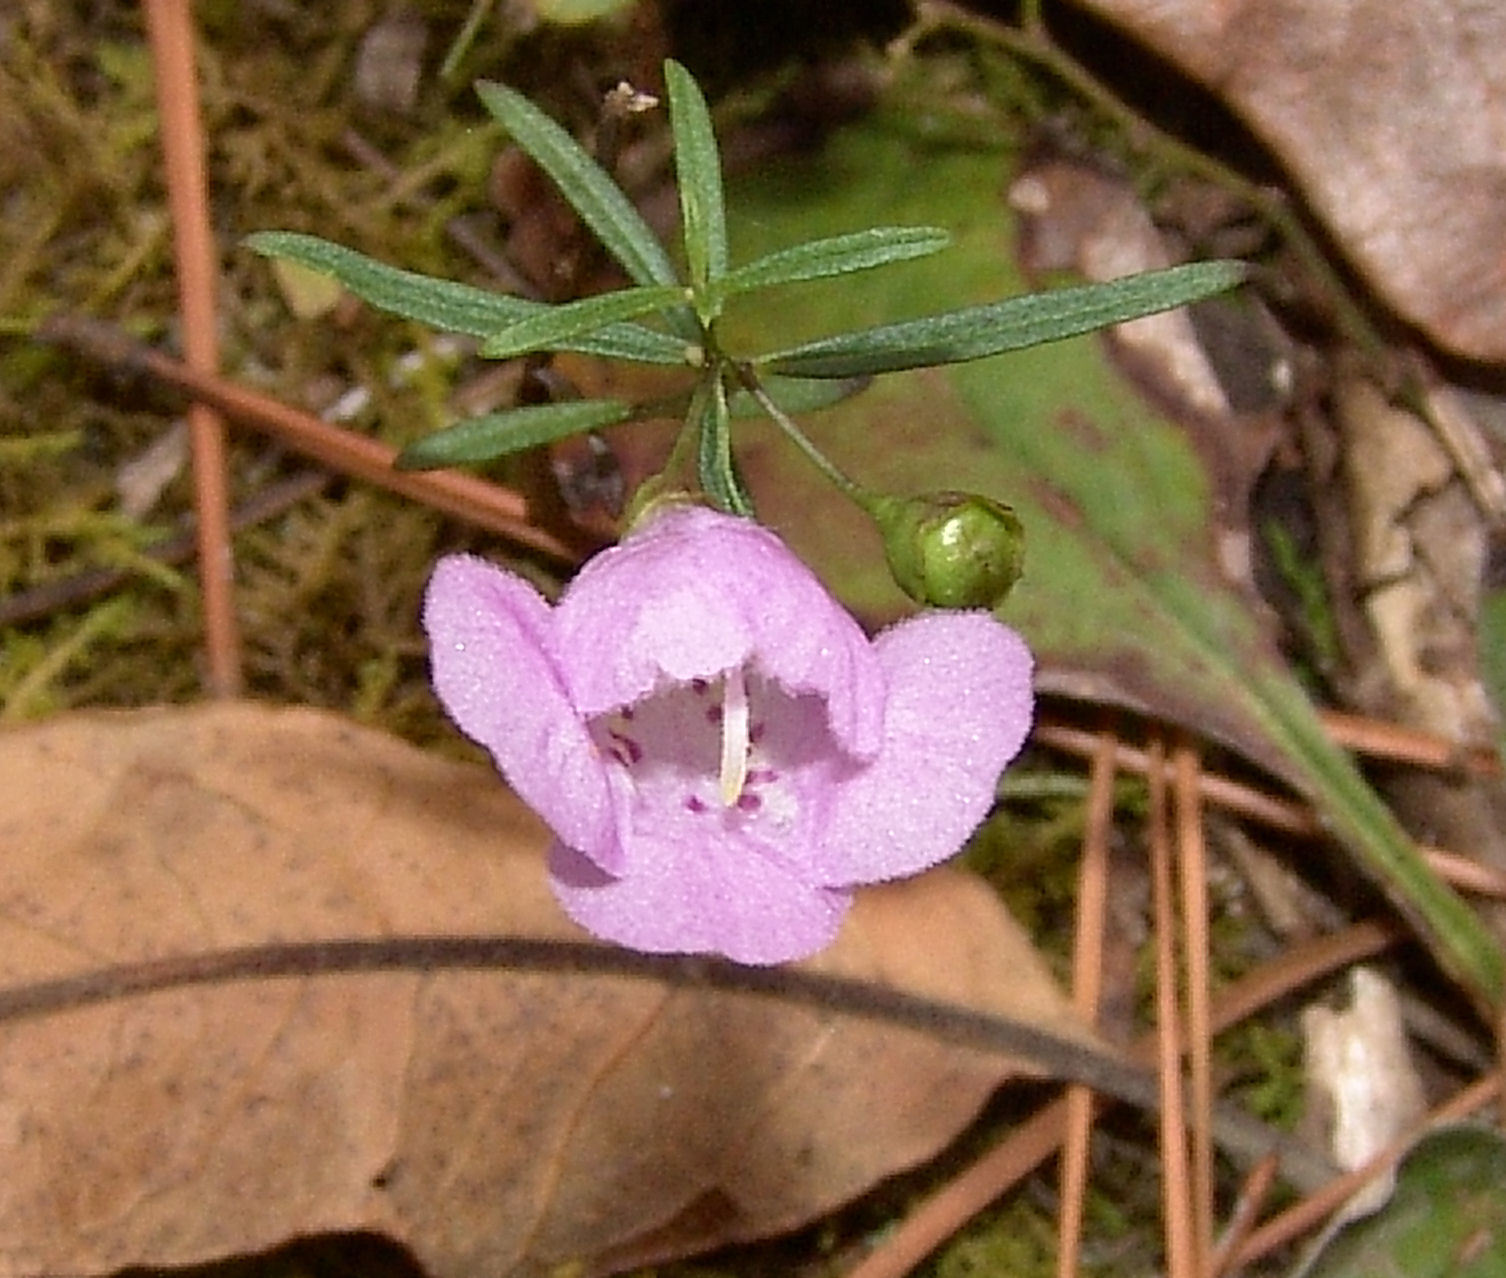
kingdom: Plantae
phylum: Tracheophyta
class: Magnoliopsida
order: Lamiales
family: Orobanchaceae
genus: Agalinis
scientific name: Agalinis tenuifolia
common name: Slender agalinis
